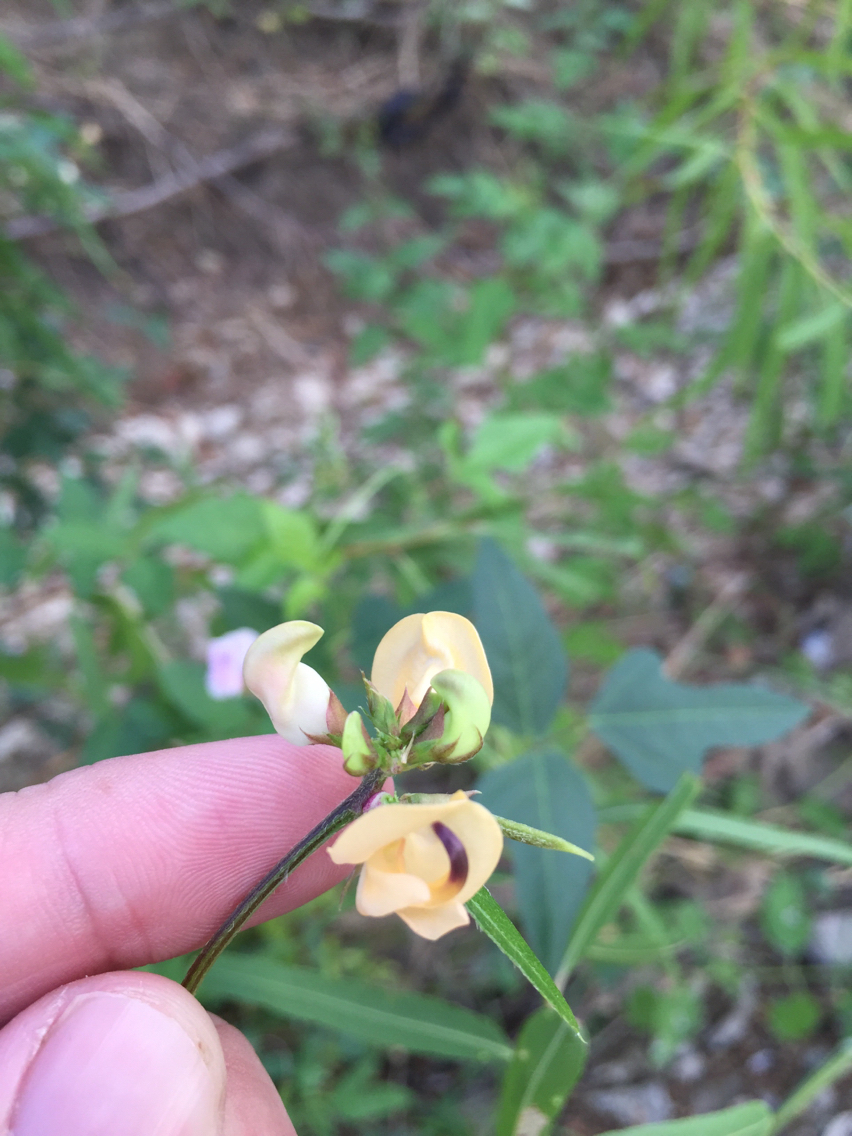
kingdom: Plantae
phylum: Tracheophyta
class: Magnoliopsida
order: Fabales
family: Fabaceae
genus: Strophostyles
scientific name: Strophostyles helvola
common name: Trailing wild bean
